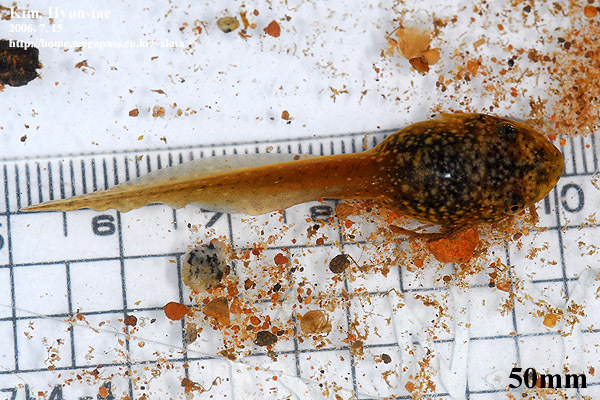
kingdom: Animalia
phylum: Chordata
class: Amphibia
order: Anura
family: Ranidae
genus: Lithobates
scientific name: Lithobates catesbeianus
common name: American bullfrog
